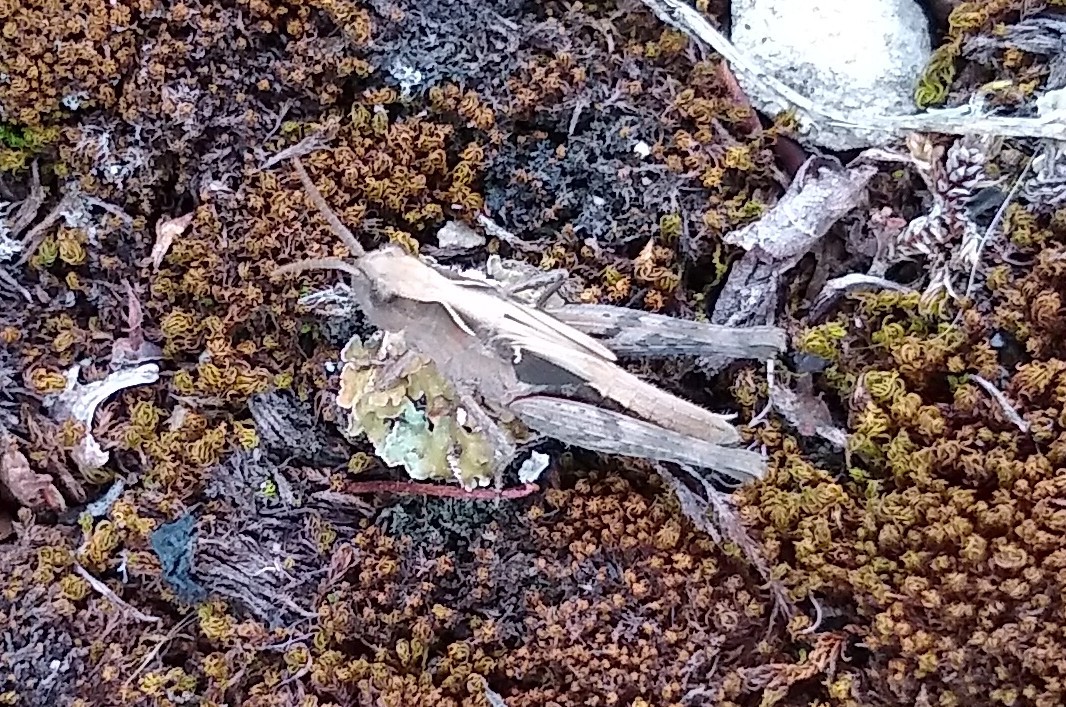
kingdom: Animalia
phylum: Arthropoda
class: Insecta
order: Orthoptera
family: Acrididae
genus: Chorthippus
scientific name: Chorthippus brunneus
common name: Field grasshopper
